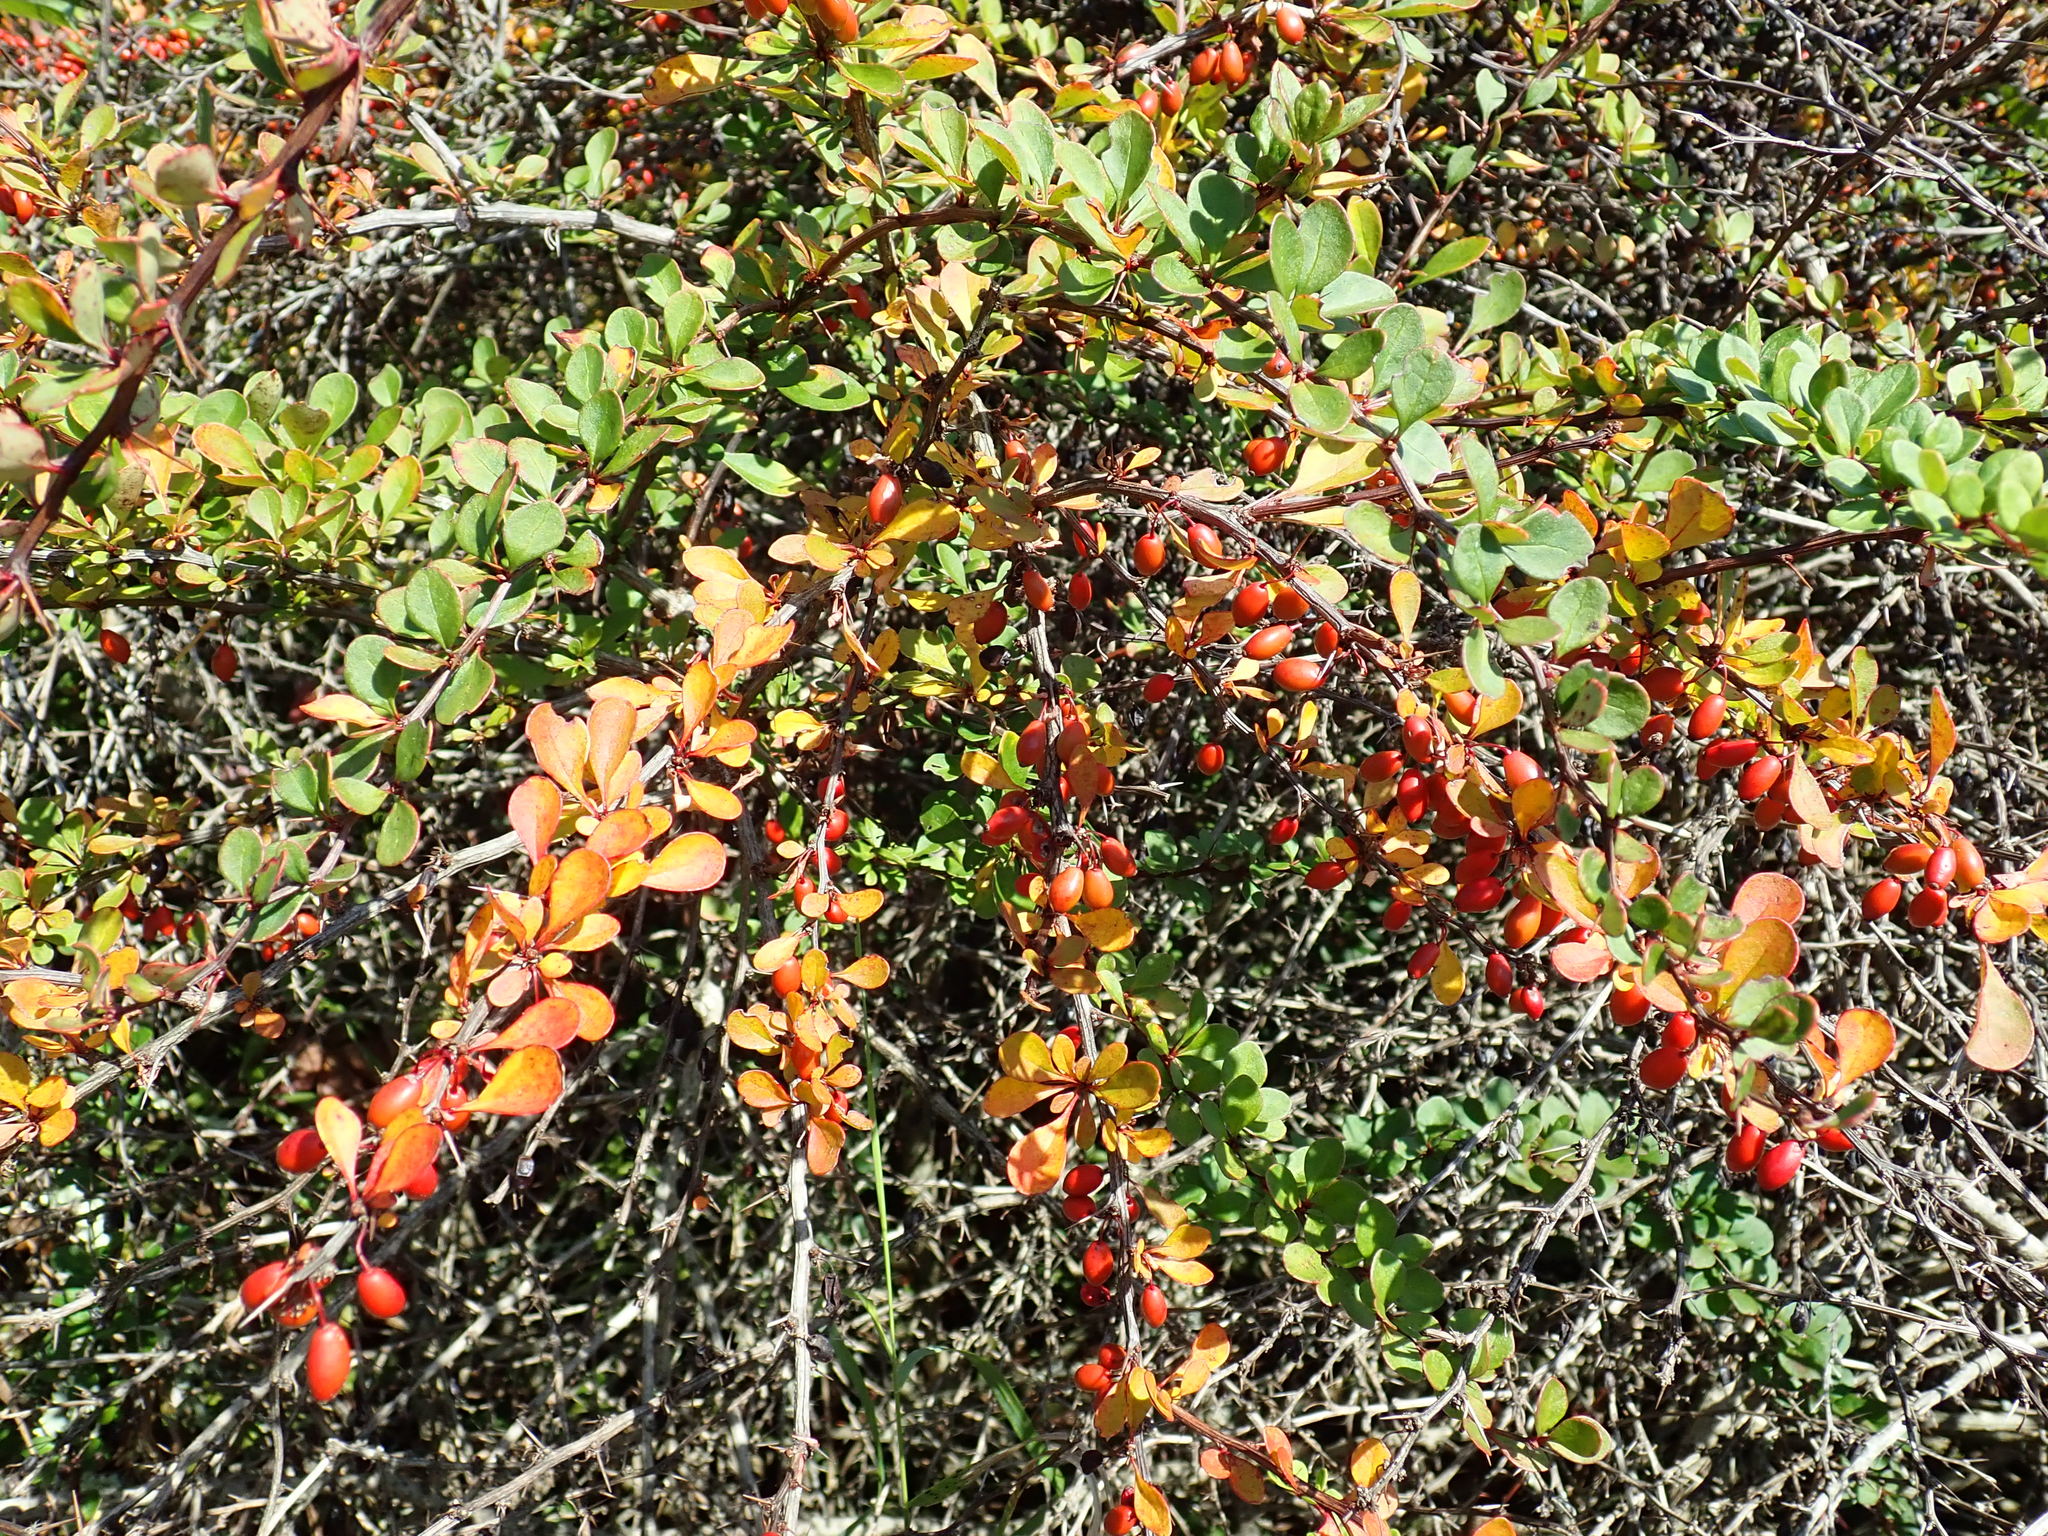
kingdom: Plantae
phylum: Tracheophyta
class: Magnoliopsida
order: Ranunculales
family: Berberidaceae
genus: Berberis
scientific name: Berberis thunbergii
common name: Japanese barberry
